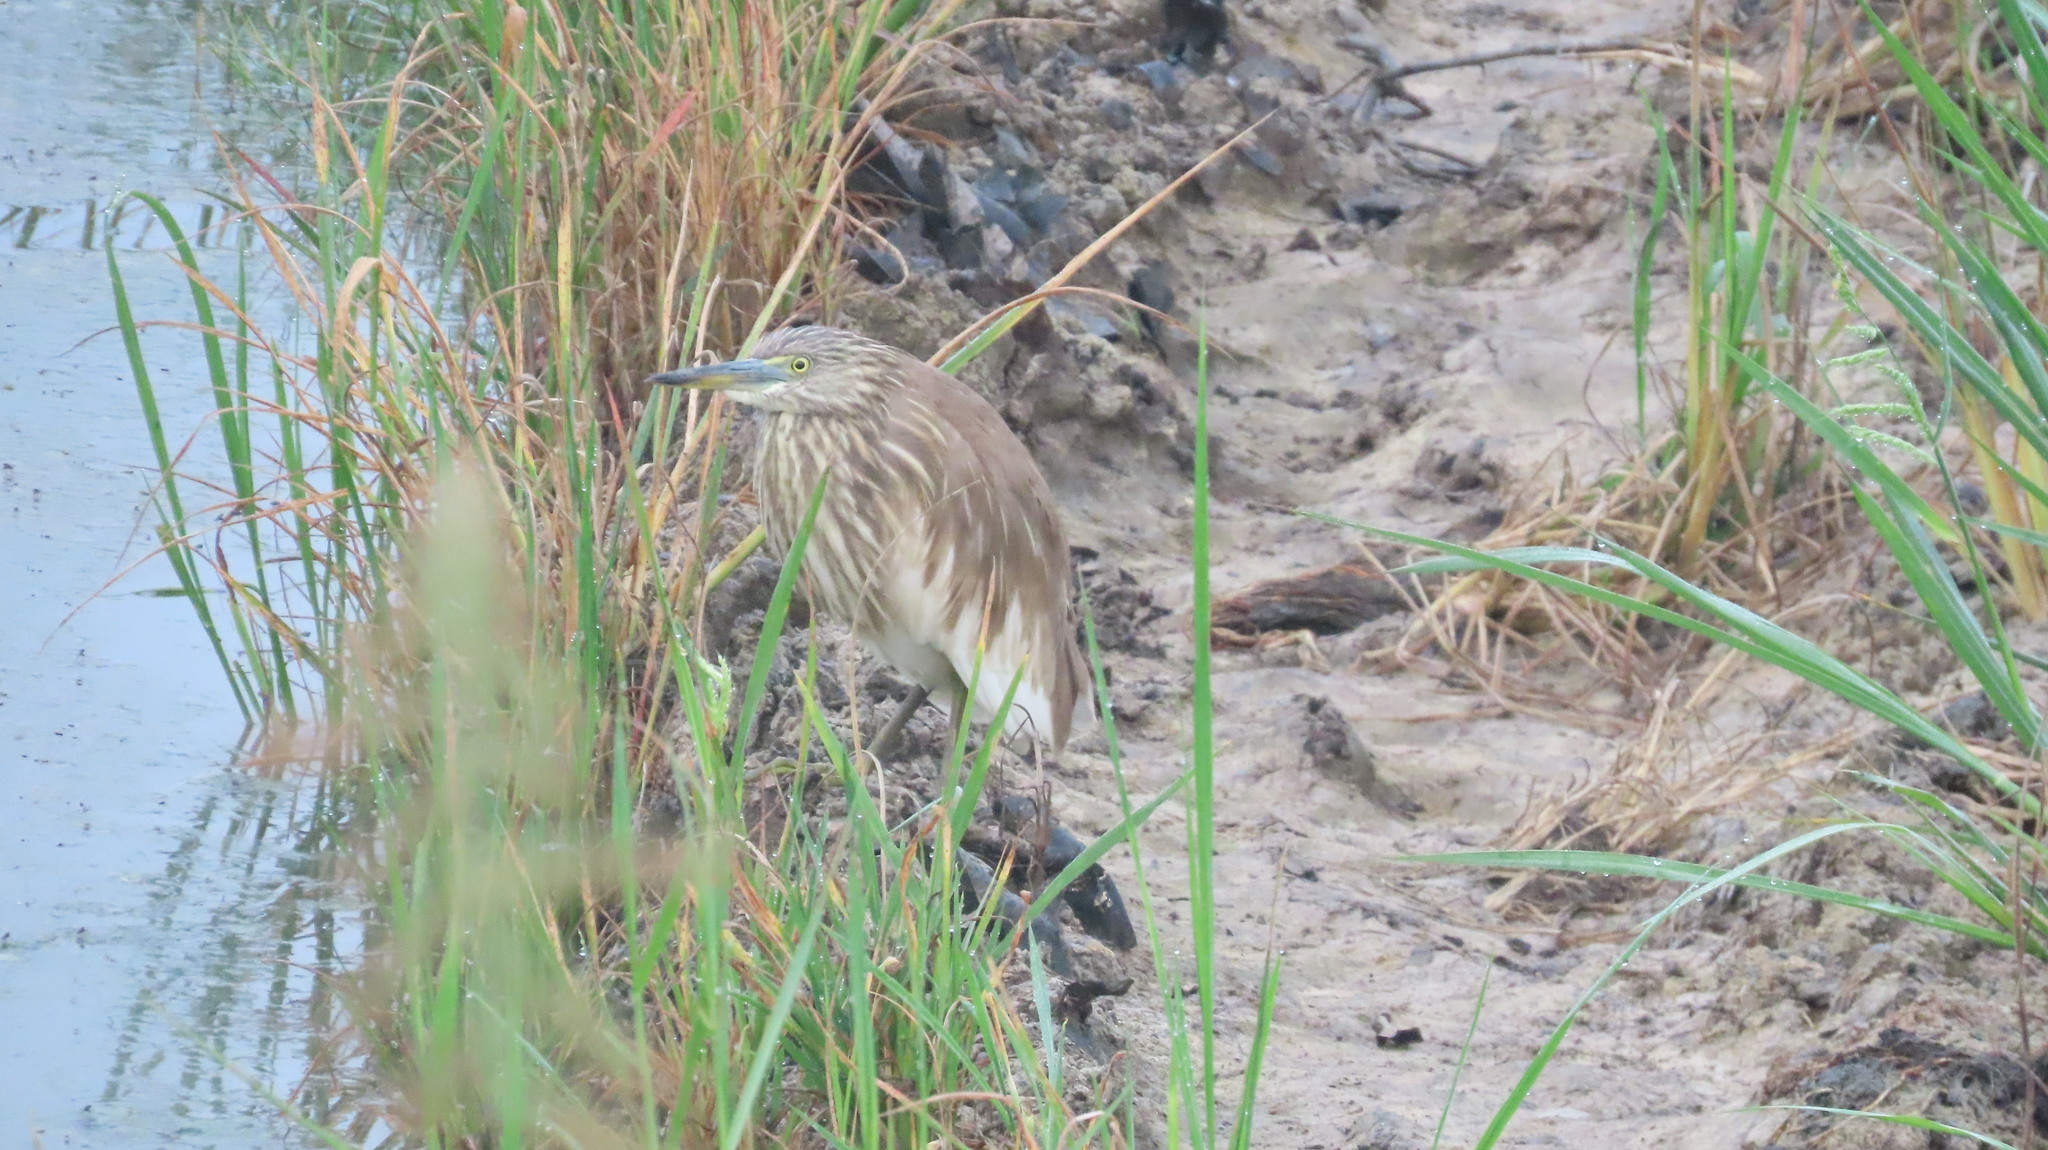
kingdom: Animalia
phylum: Chordata
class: Aves
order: Pelecaniformes
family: Ardeidae
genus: Ardeola
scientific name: Ardeola grayii
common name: Indian pond heron
